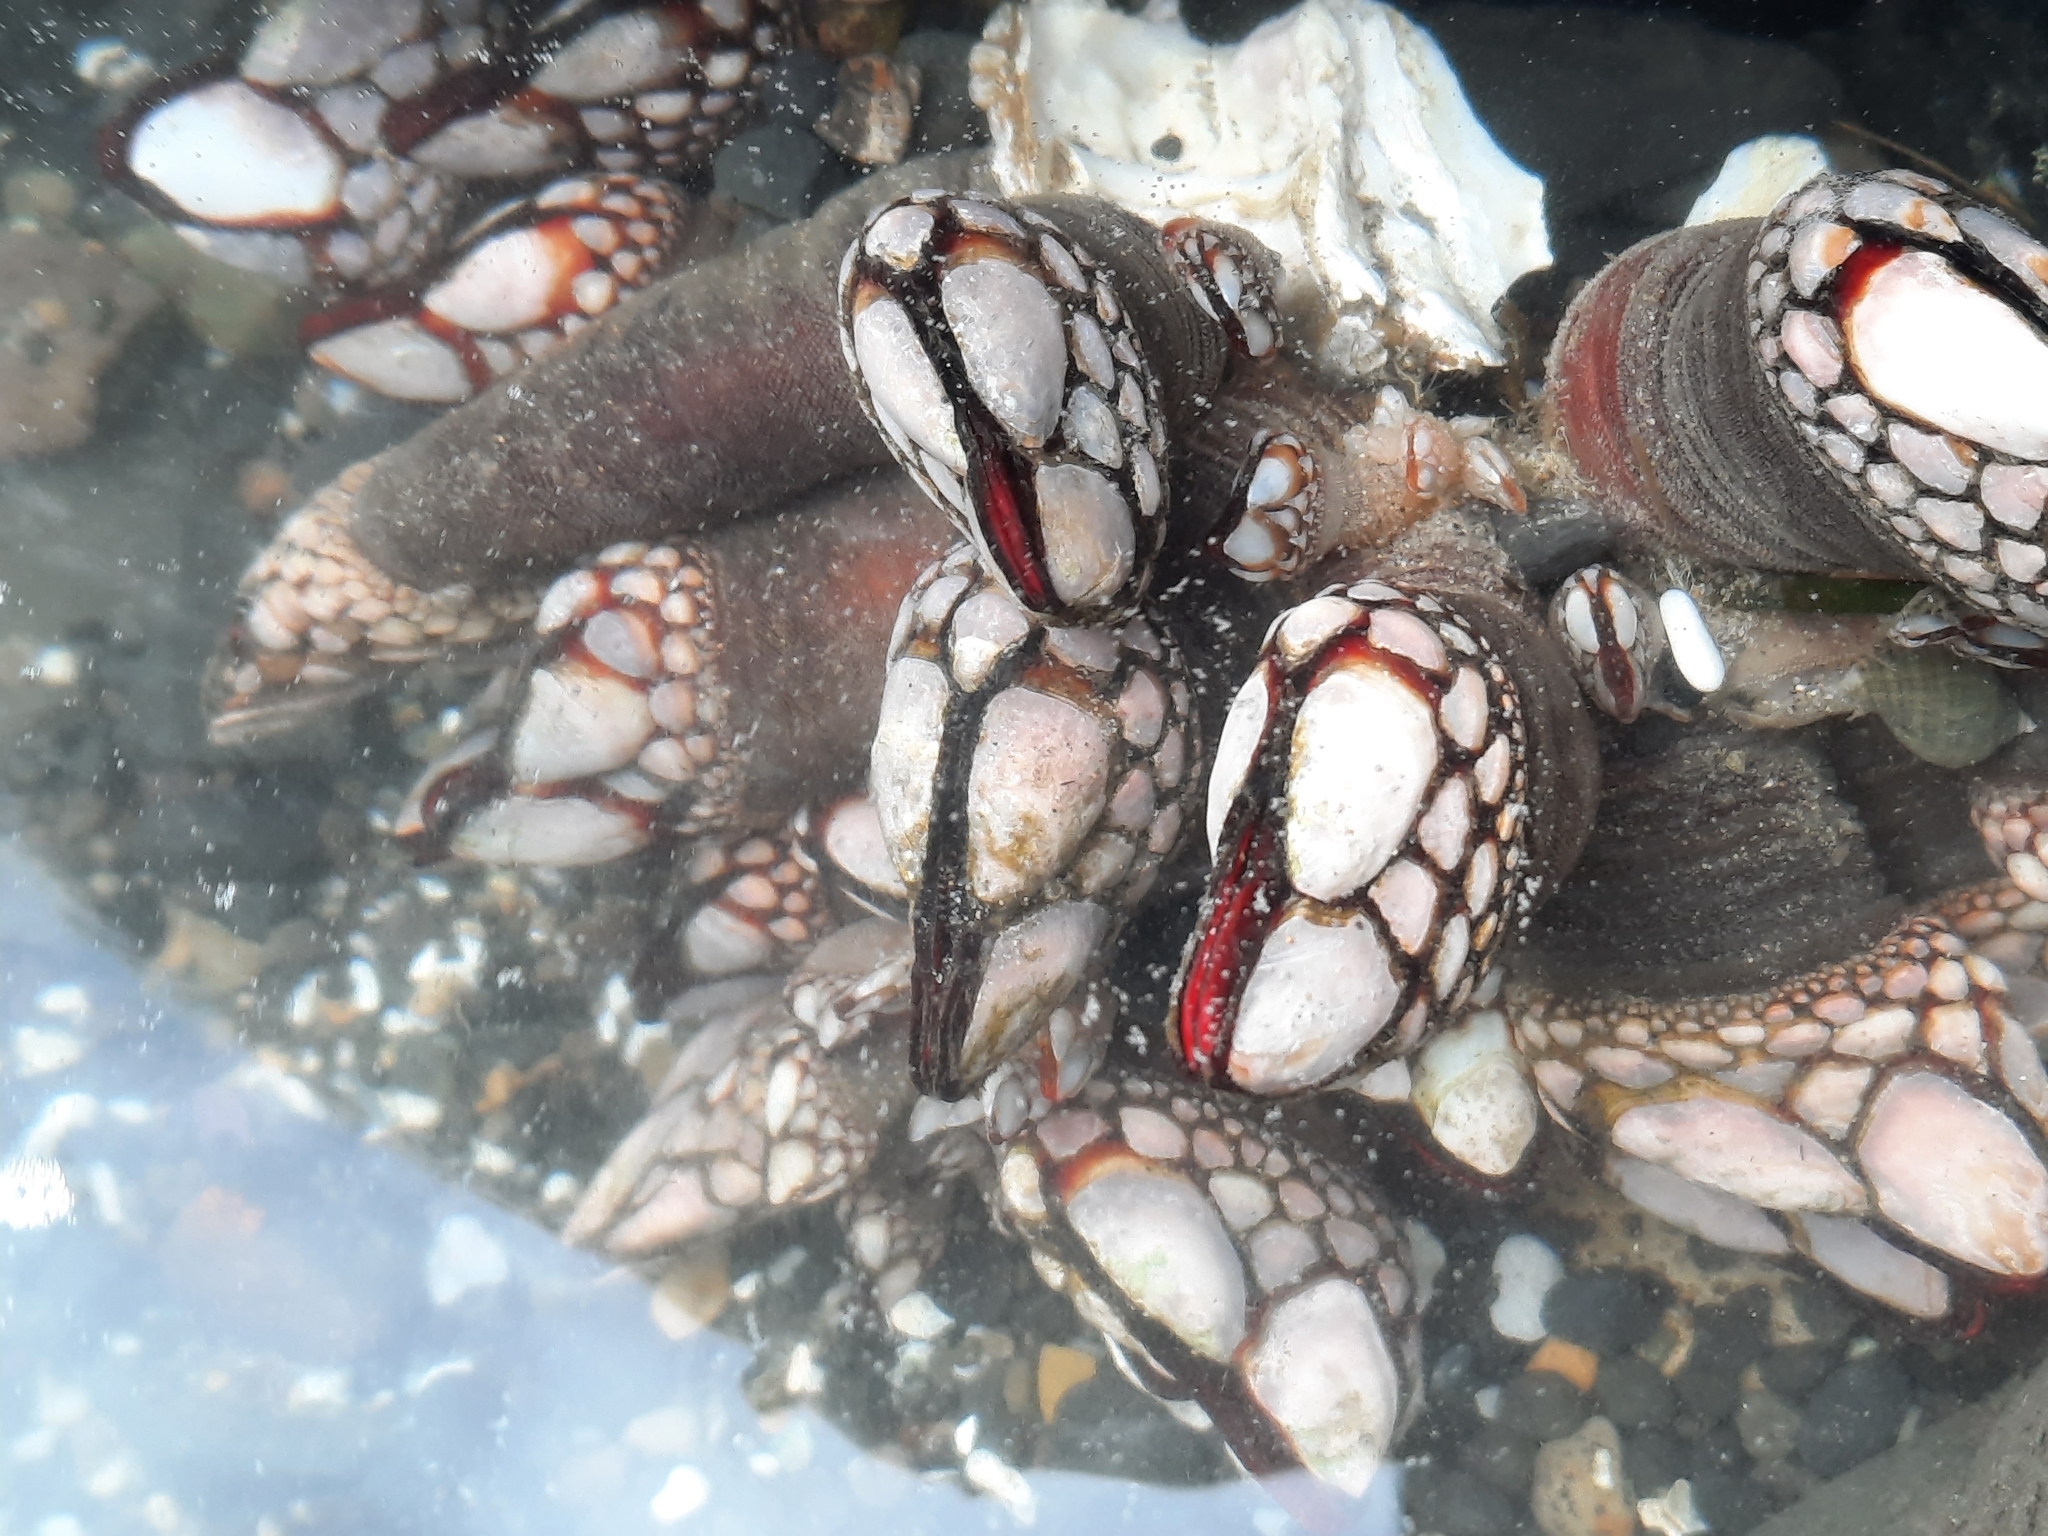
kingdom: Animalia
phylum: Arthropoda
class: Maxillopoda
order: Pedunculata
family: Pollicipedidae
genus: Pollicipes
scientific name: Pollicipes polymerus
